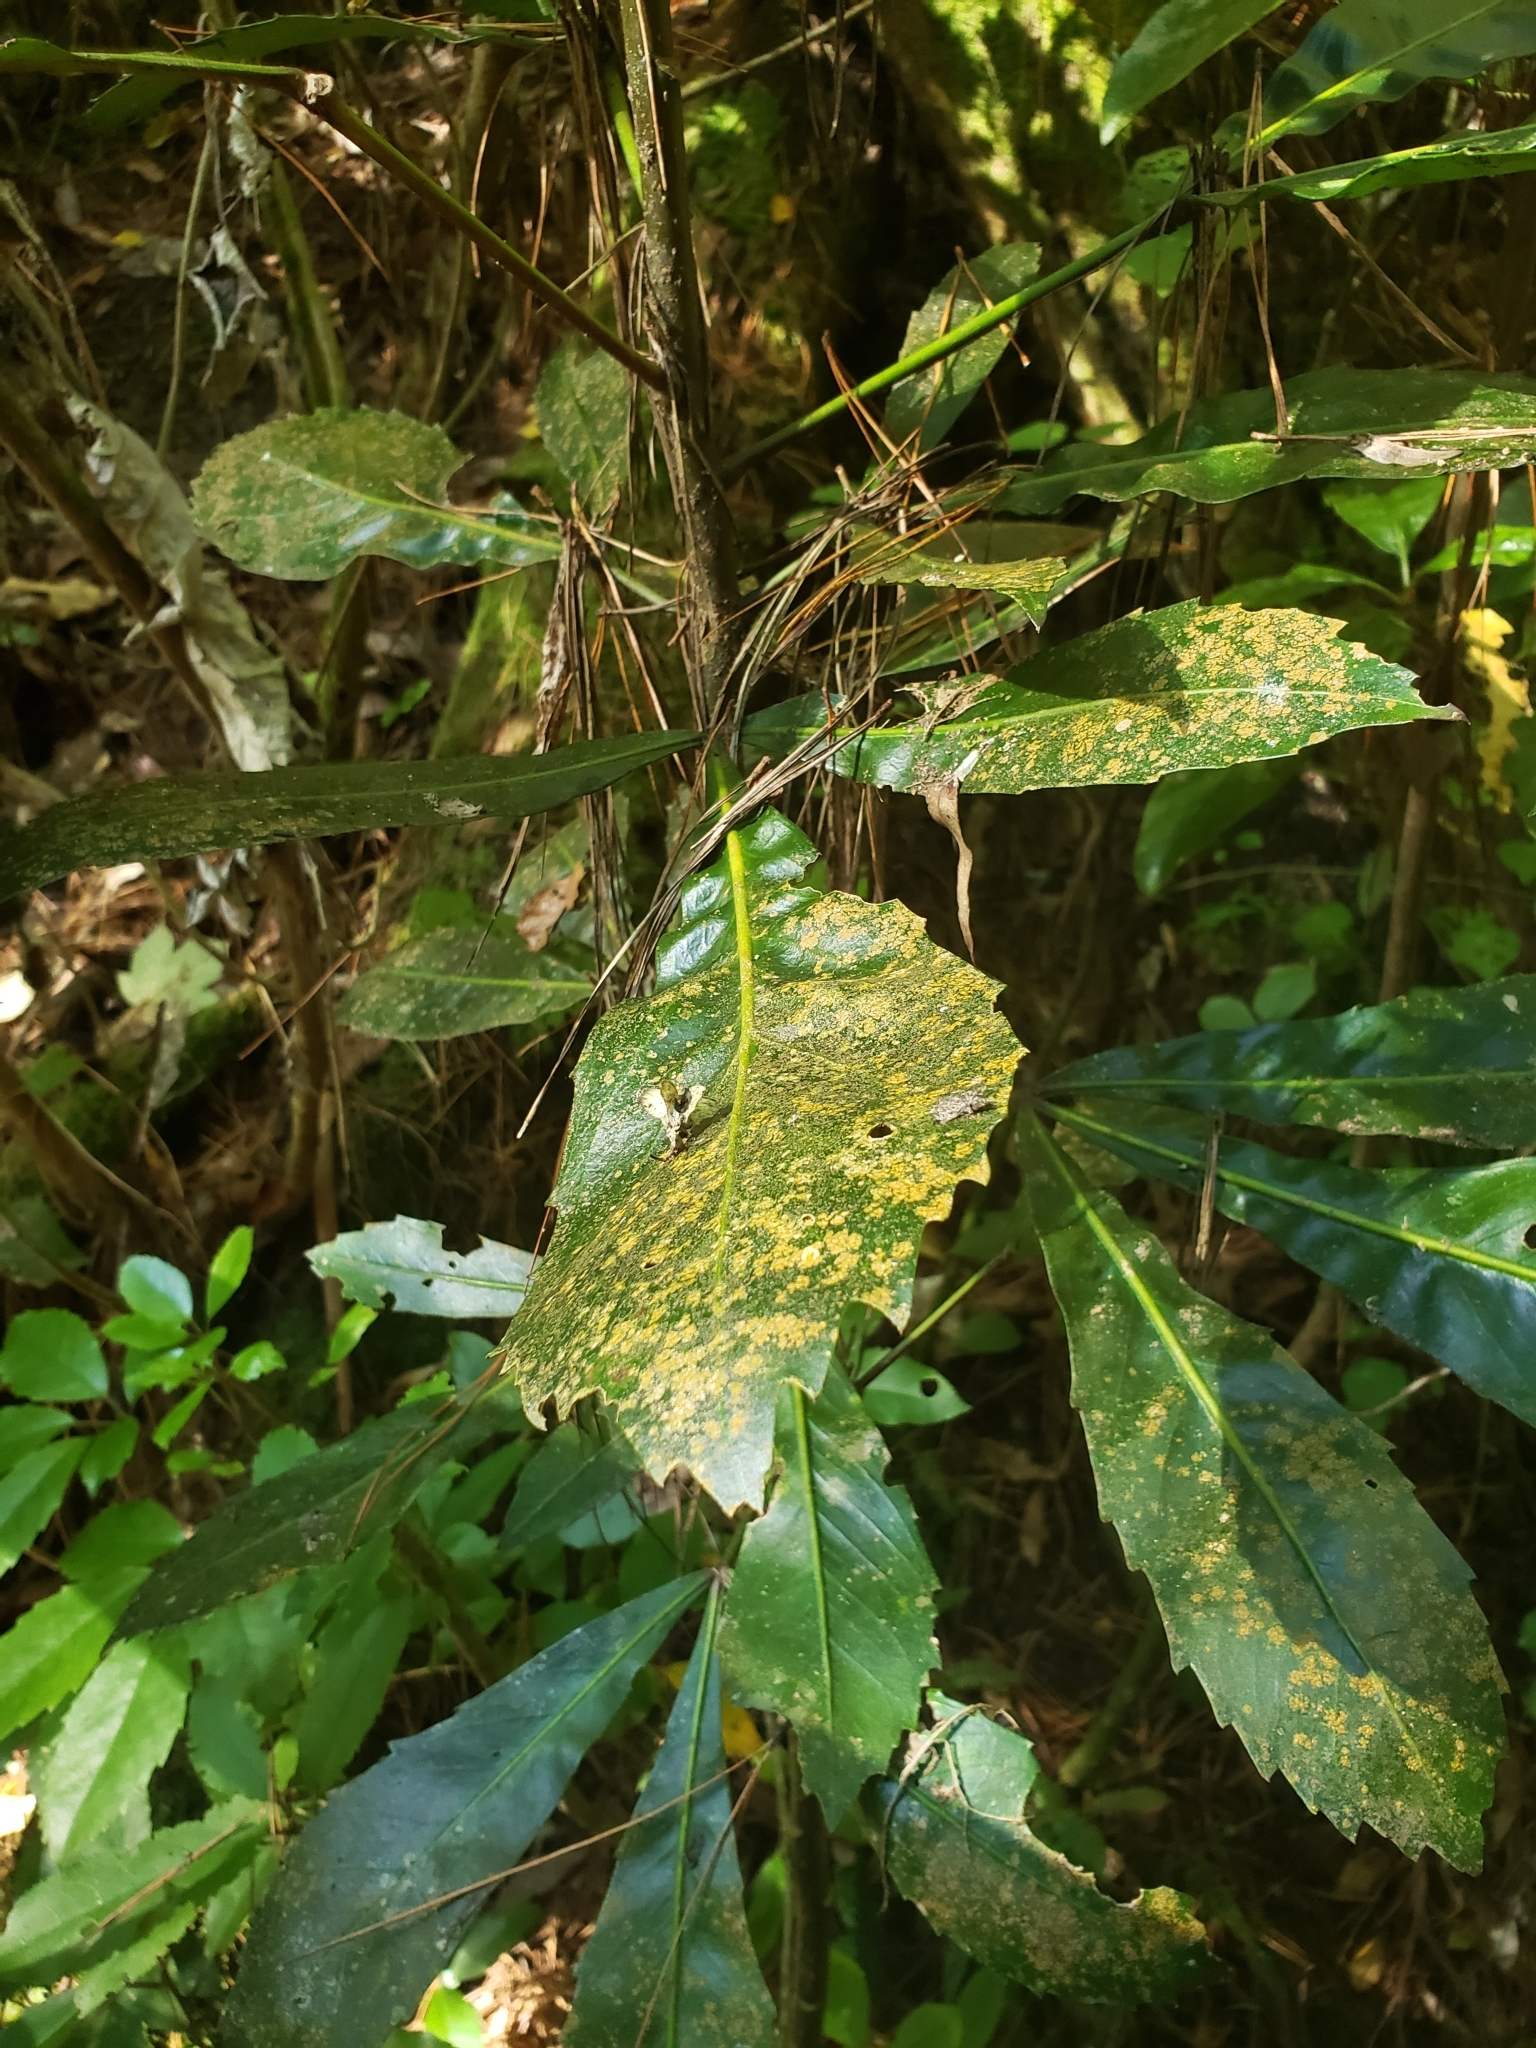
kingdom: Plantae
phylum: Tracheophyta
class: Magnoliopsida
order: Apiales
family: Araliaceae
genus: Pseudopanax
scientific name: Pseudopanax
